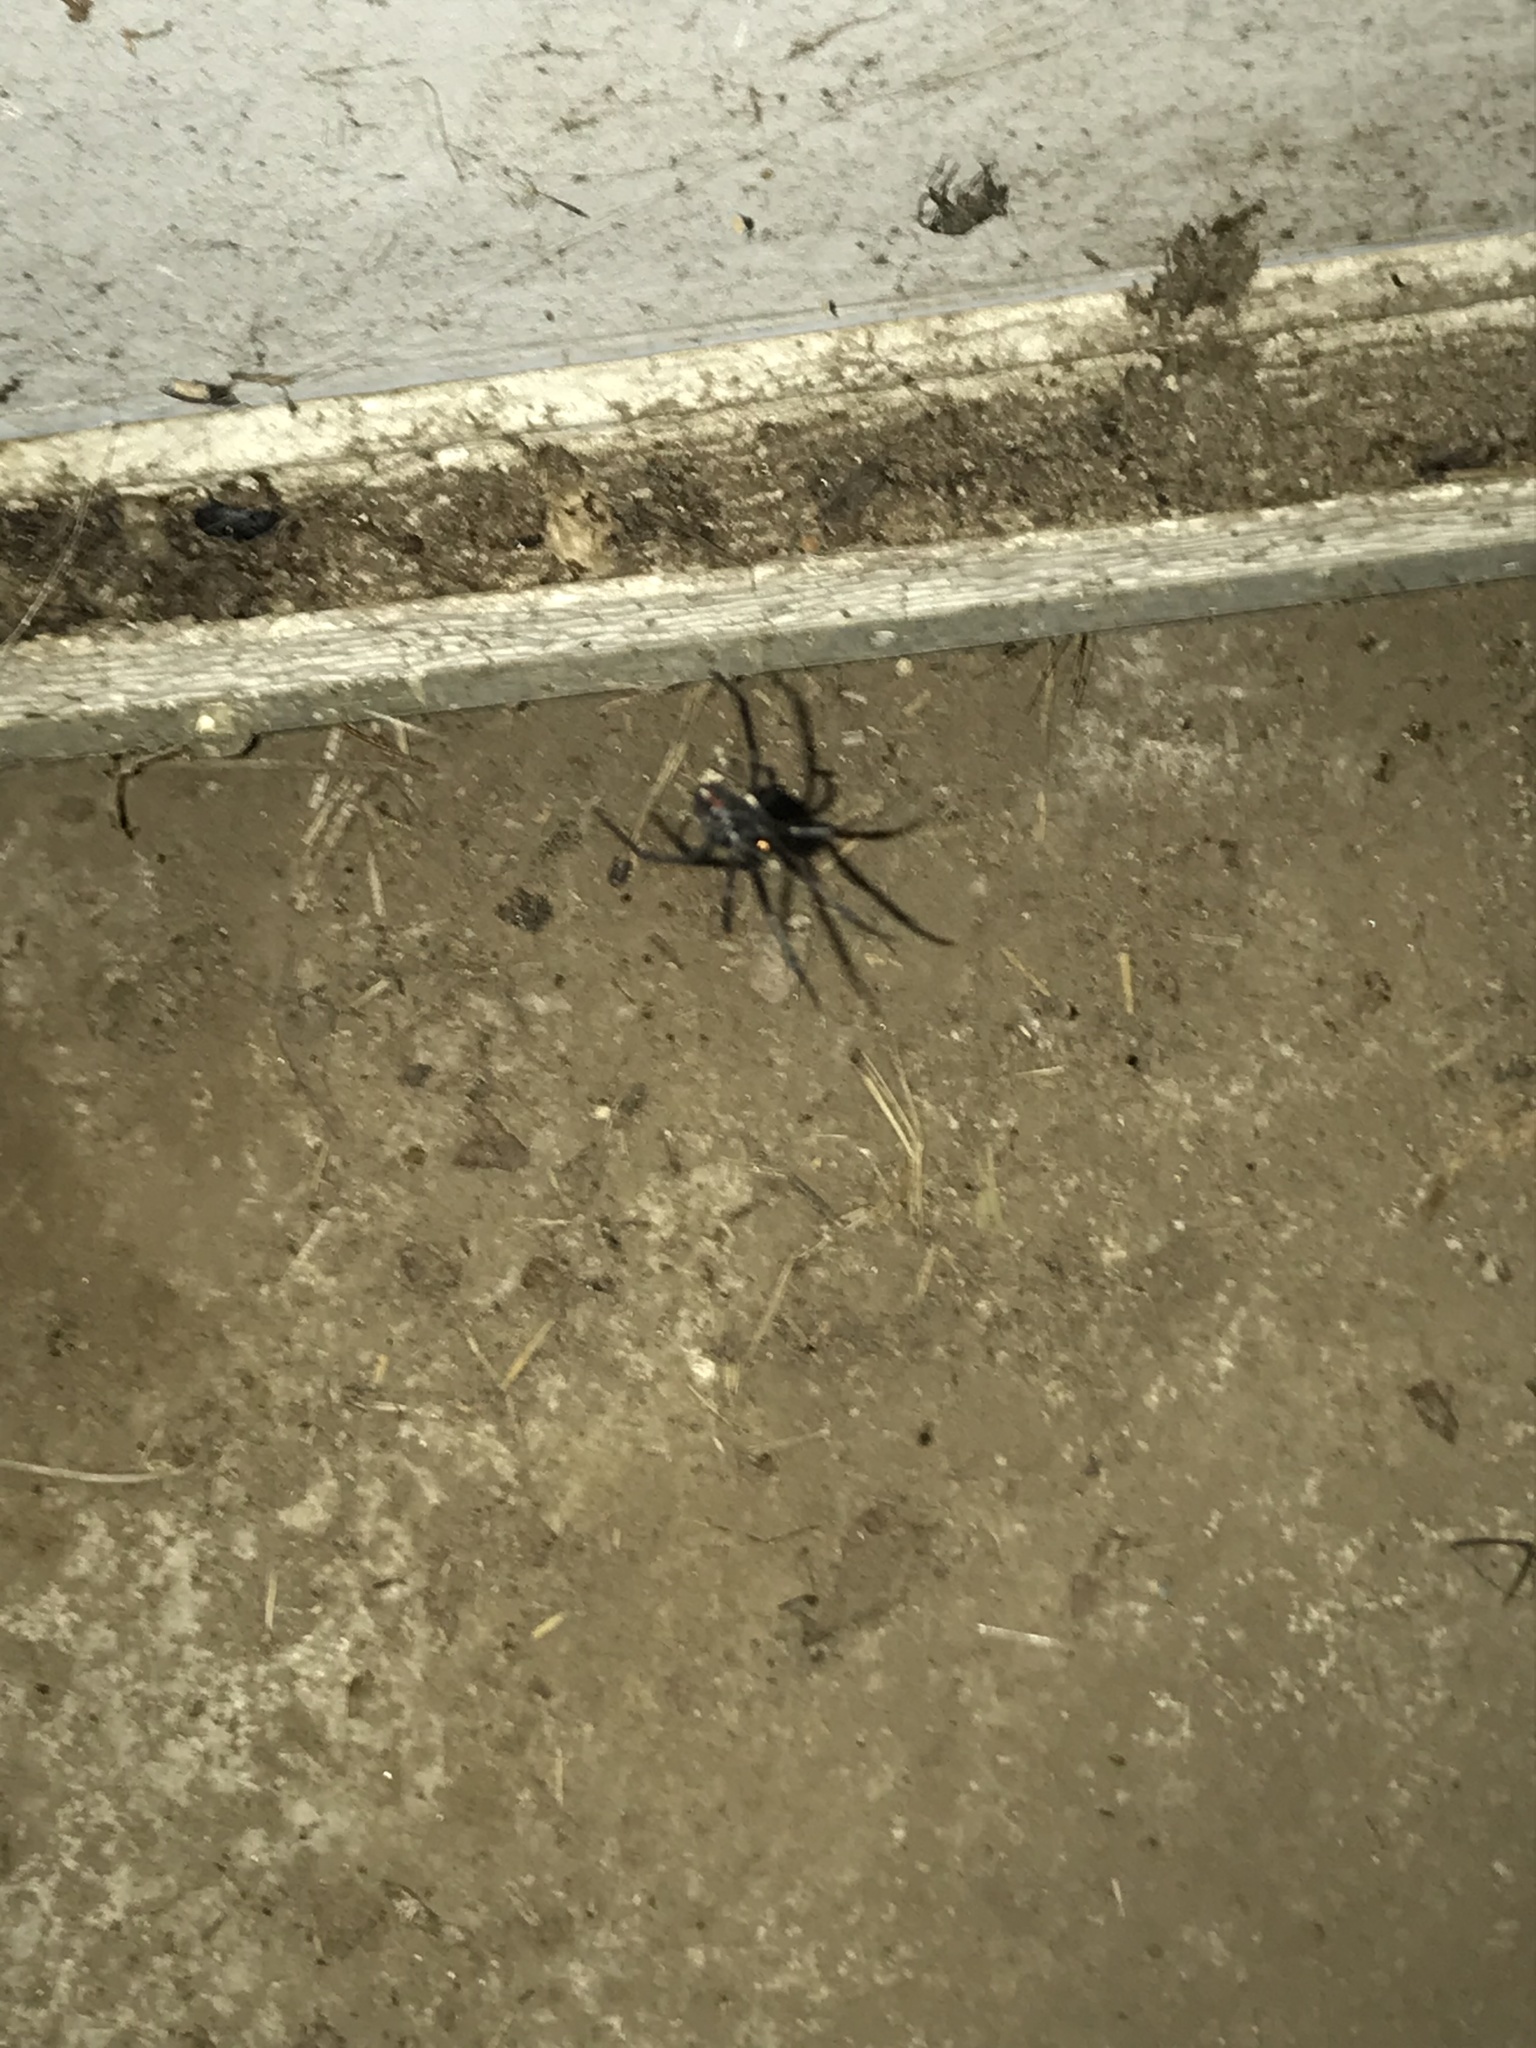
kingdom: Animalia
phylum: Arthropoda
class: Arachnida
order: Araneae
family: Theridiidae
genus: Latrodectus
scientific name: Latrodectus hesperus
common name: Western black widow
